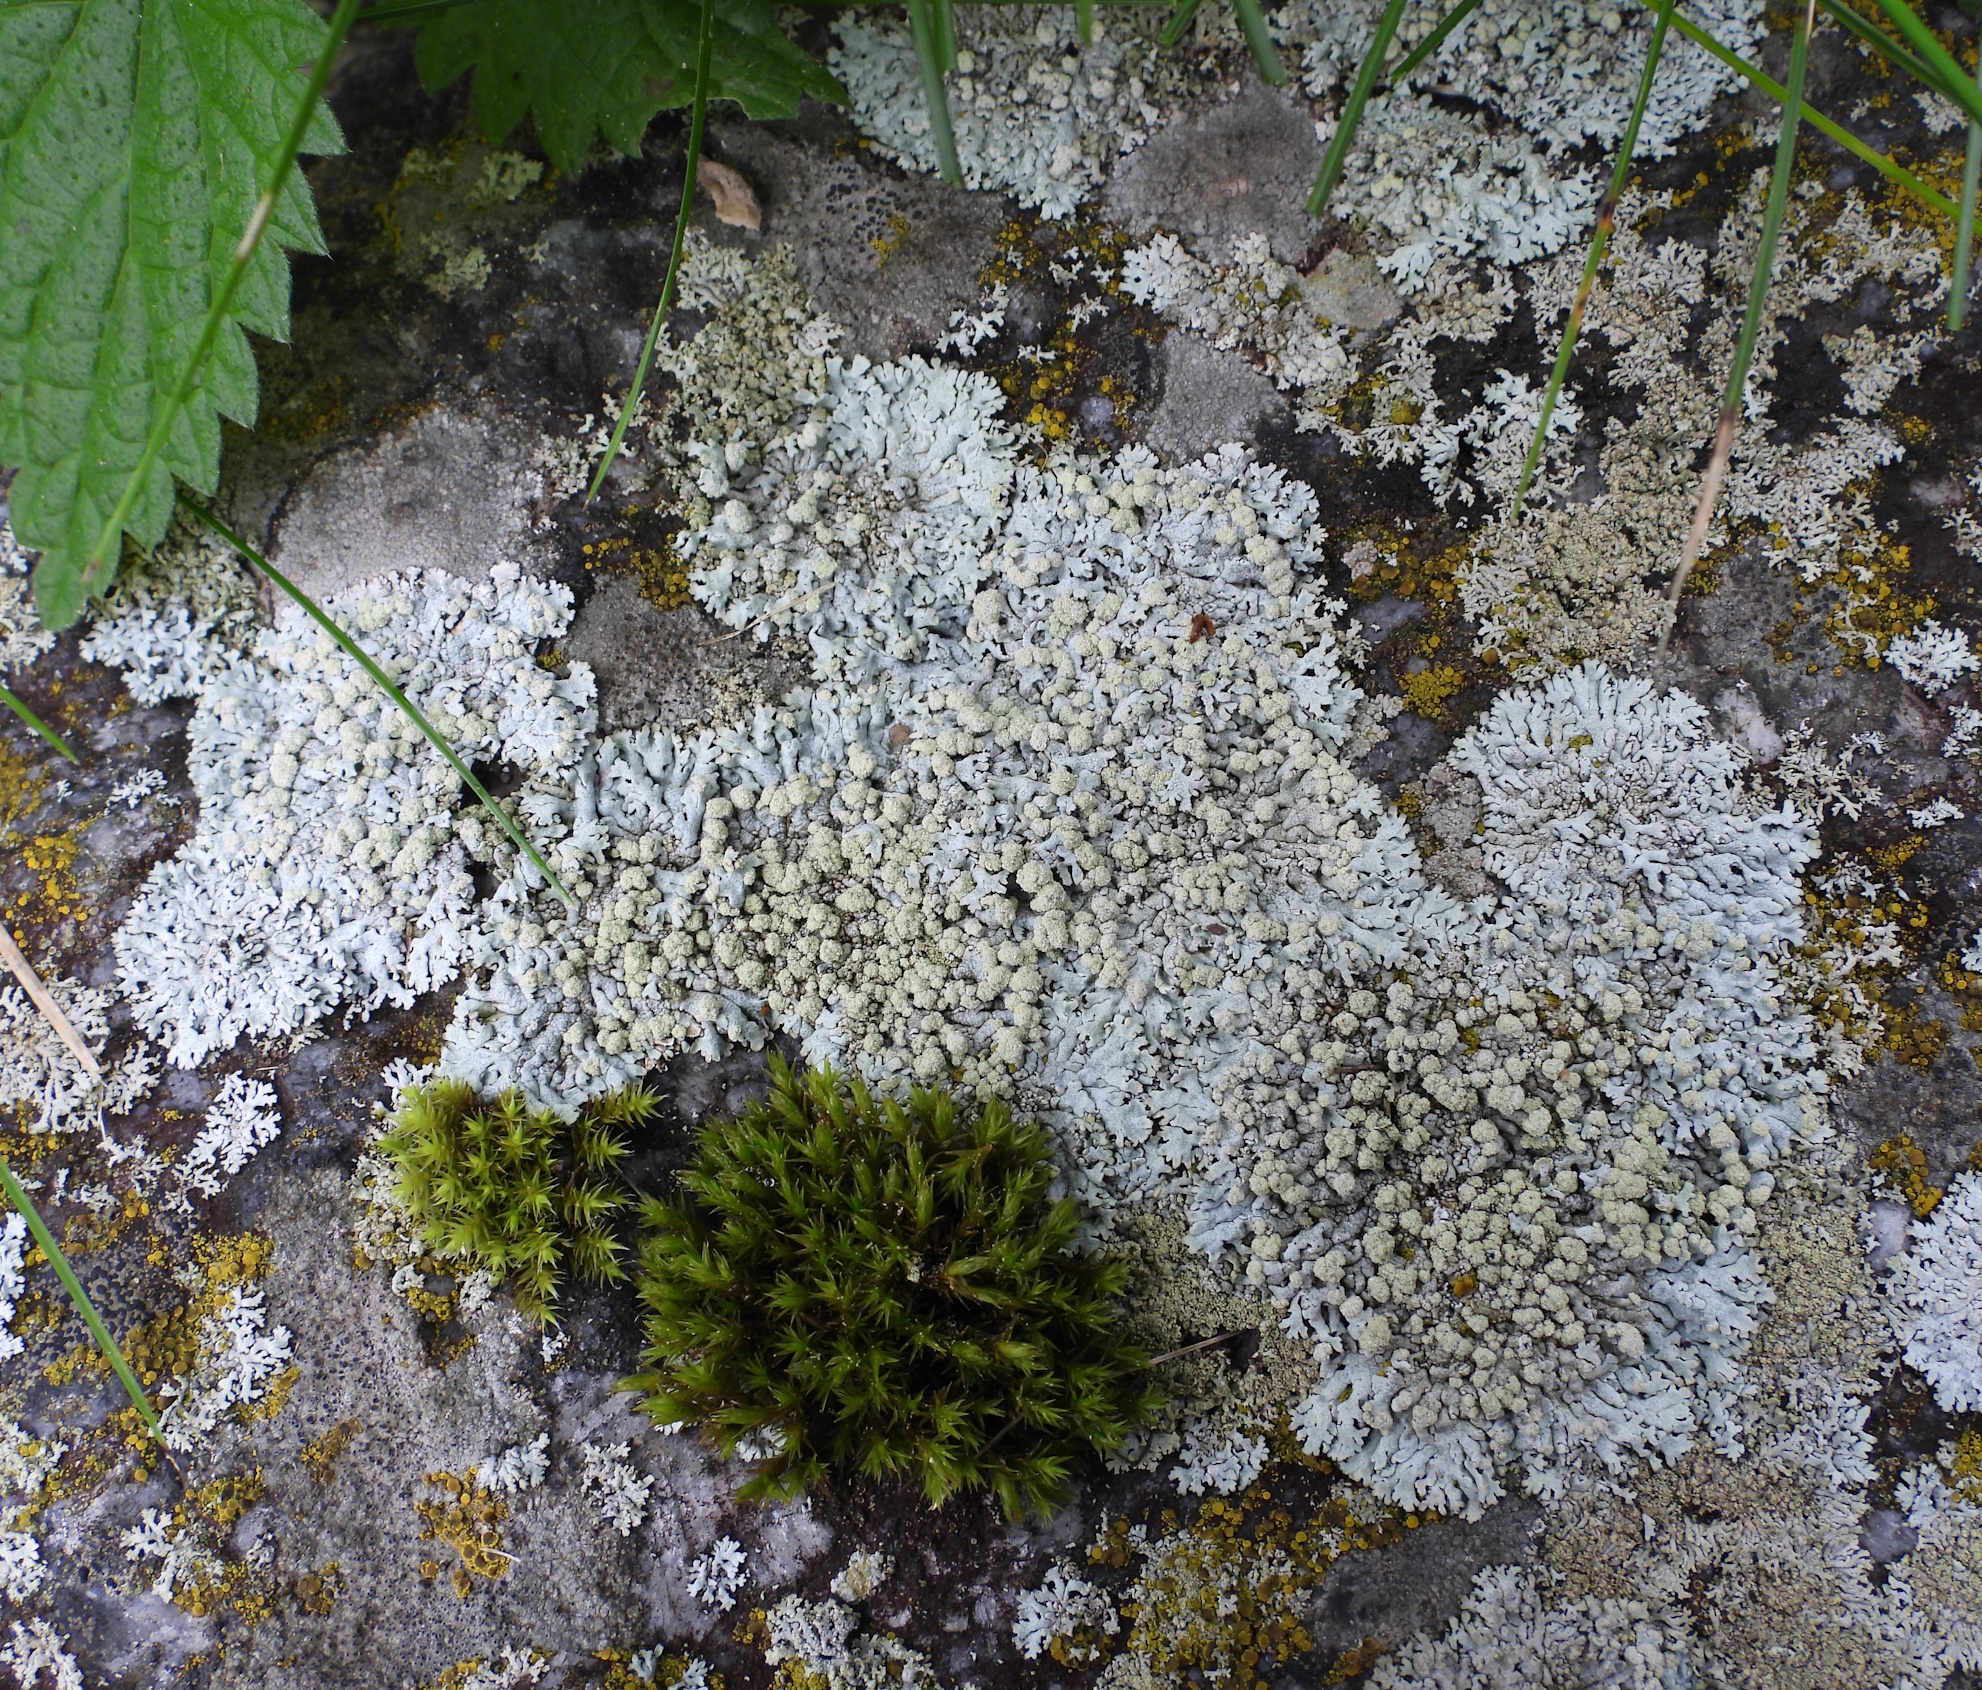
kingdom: Fungi
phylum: Ascomycota
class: Lecanoromycetes
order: Caliciales
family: Physciaceae
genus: Physcia
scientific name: Physcia caesia
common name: Blue-gray rosette lichen
